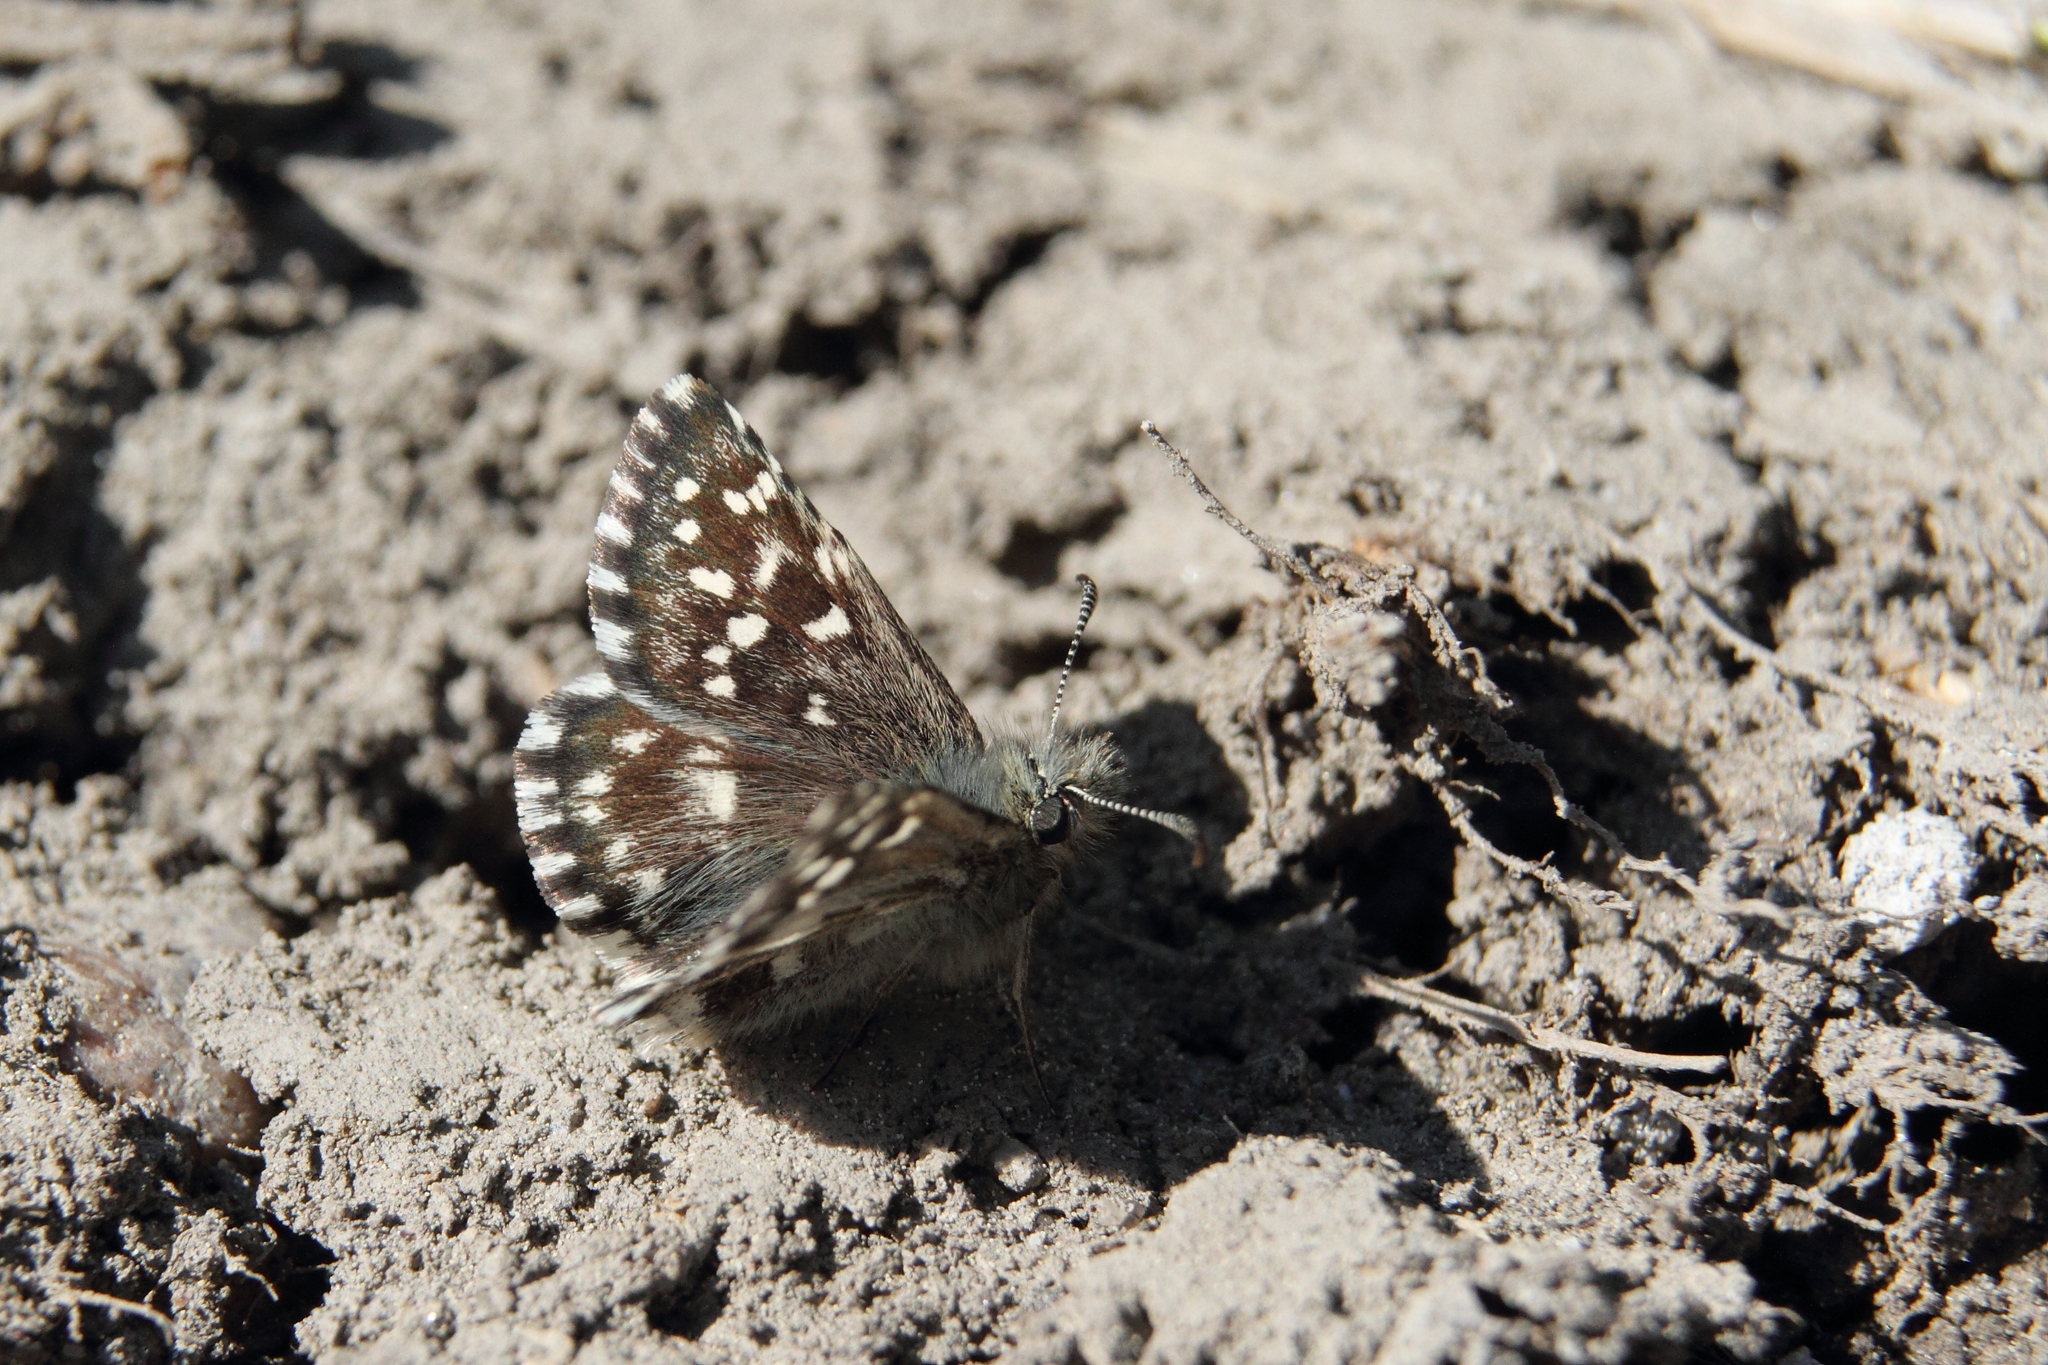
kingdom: Animalia
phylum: Arthropoda
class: Insecta
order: Lepidoptera
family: Hesperiidae
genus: Pyrgus
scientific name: Pyrgus malvae
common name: Grizzled skipper
